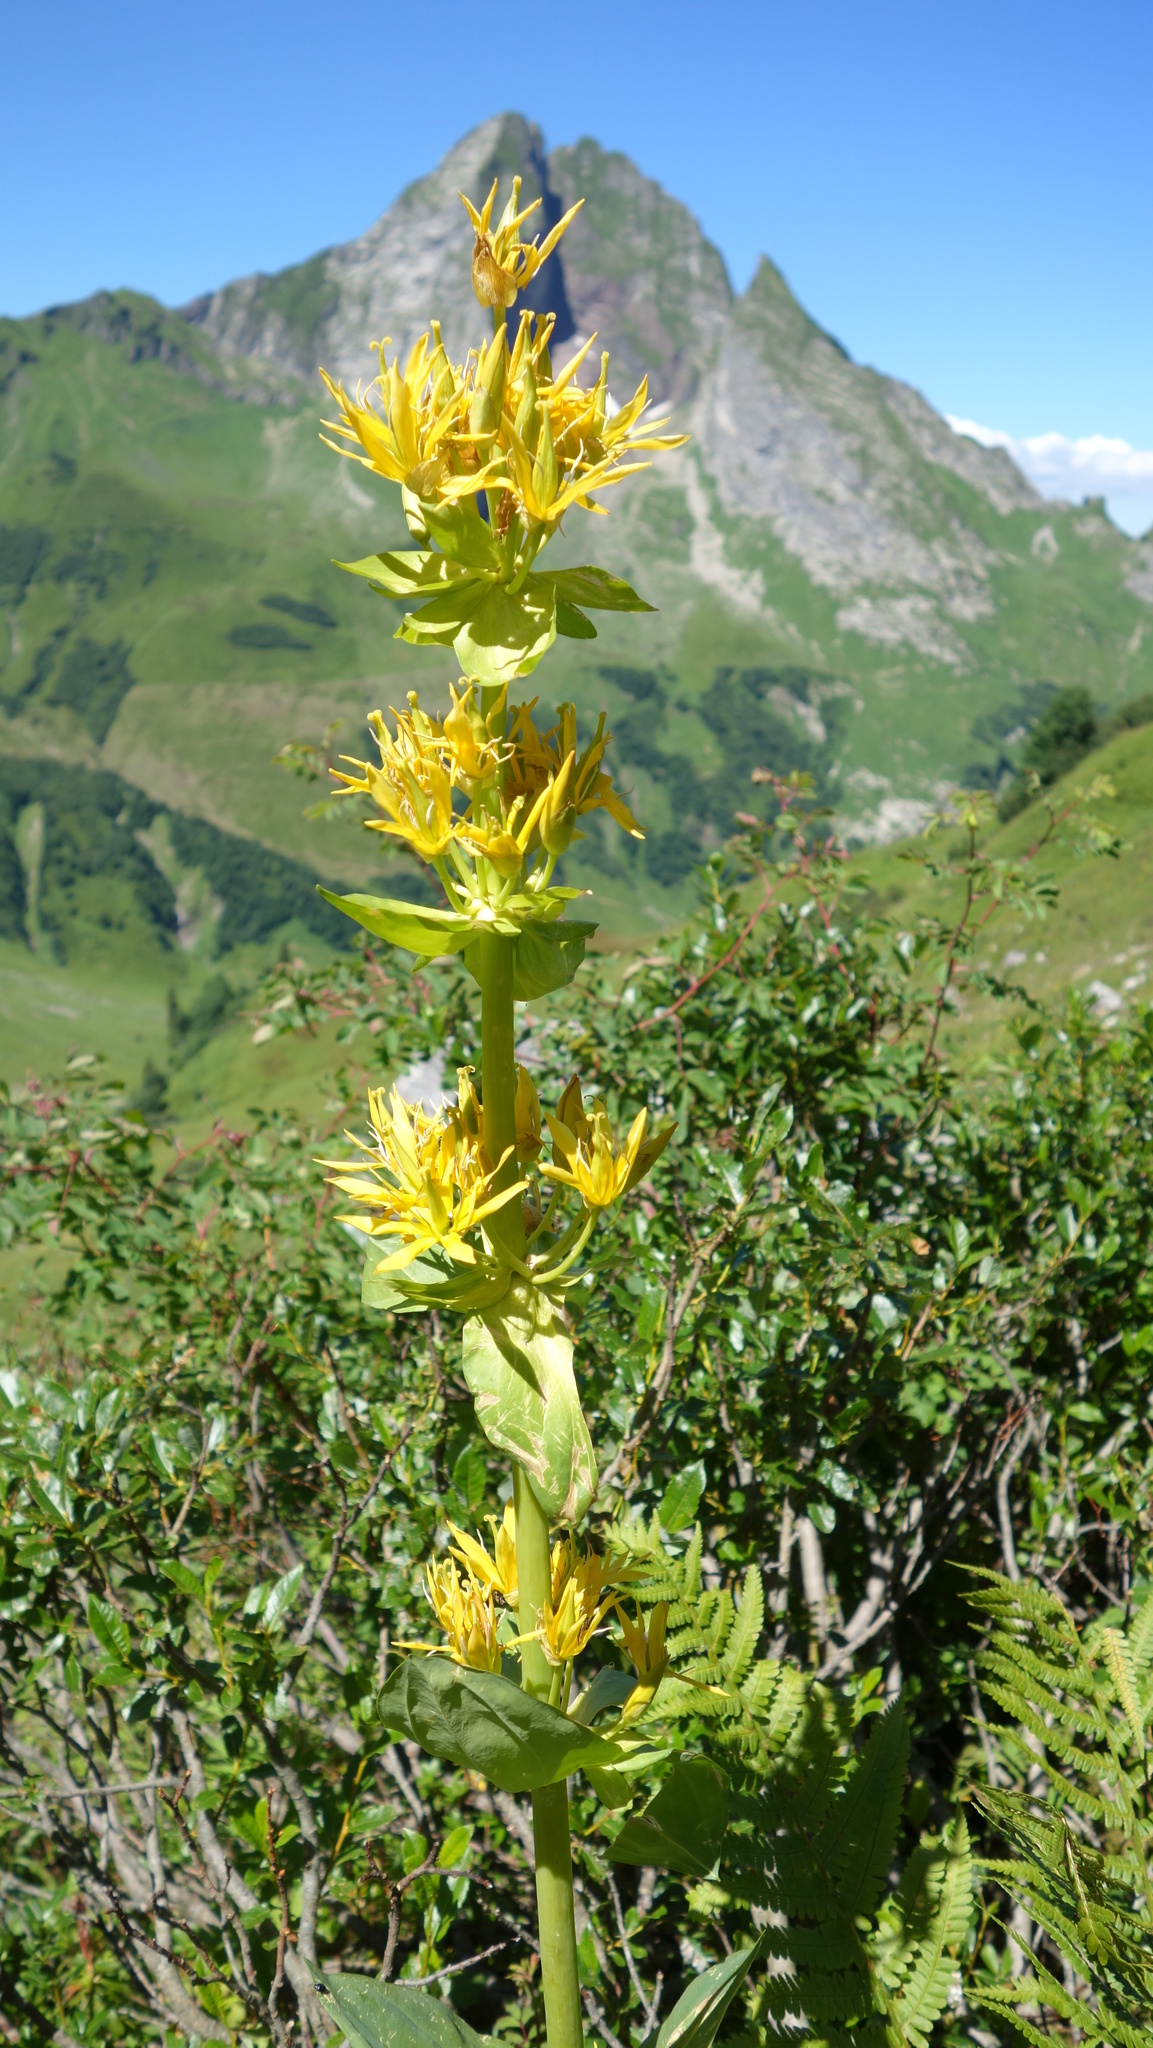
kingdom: Plantae
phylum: Tracheophyta
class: Magnoliopsida
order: Gentianales
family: Gentianaceae
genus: Gentiana
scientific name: Gentiana lutea
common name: Great yellow gentian
